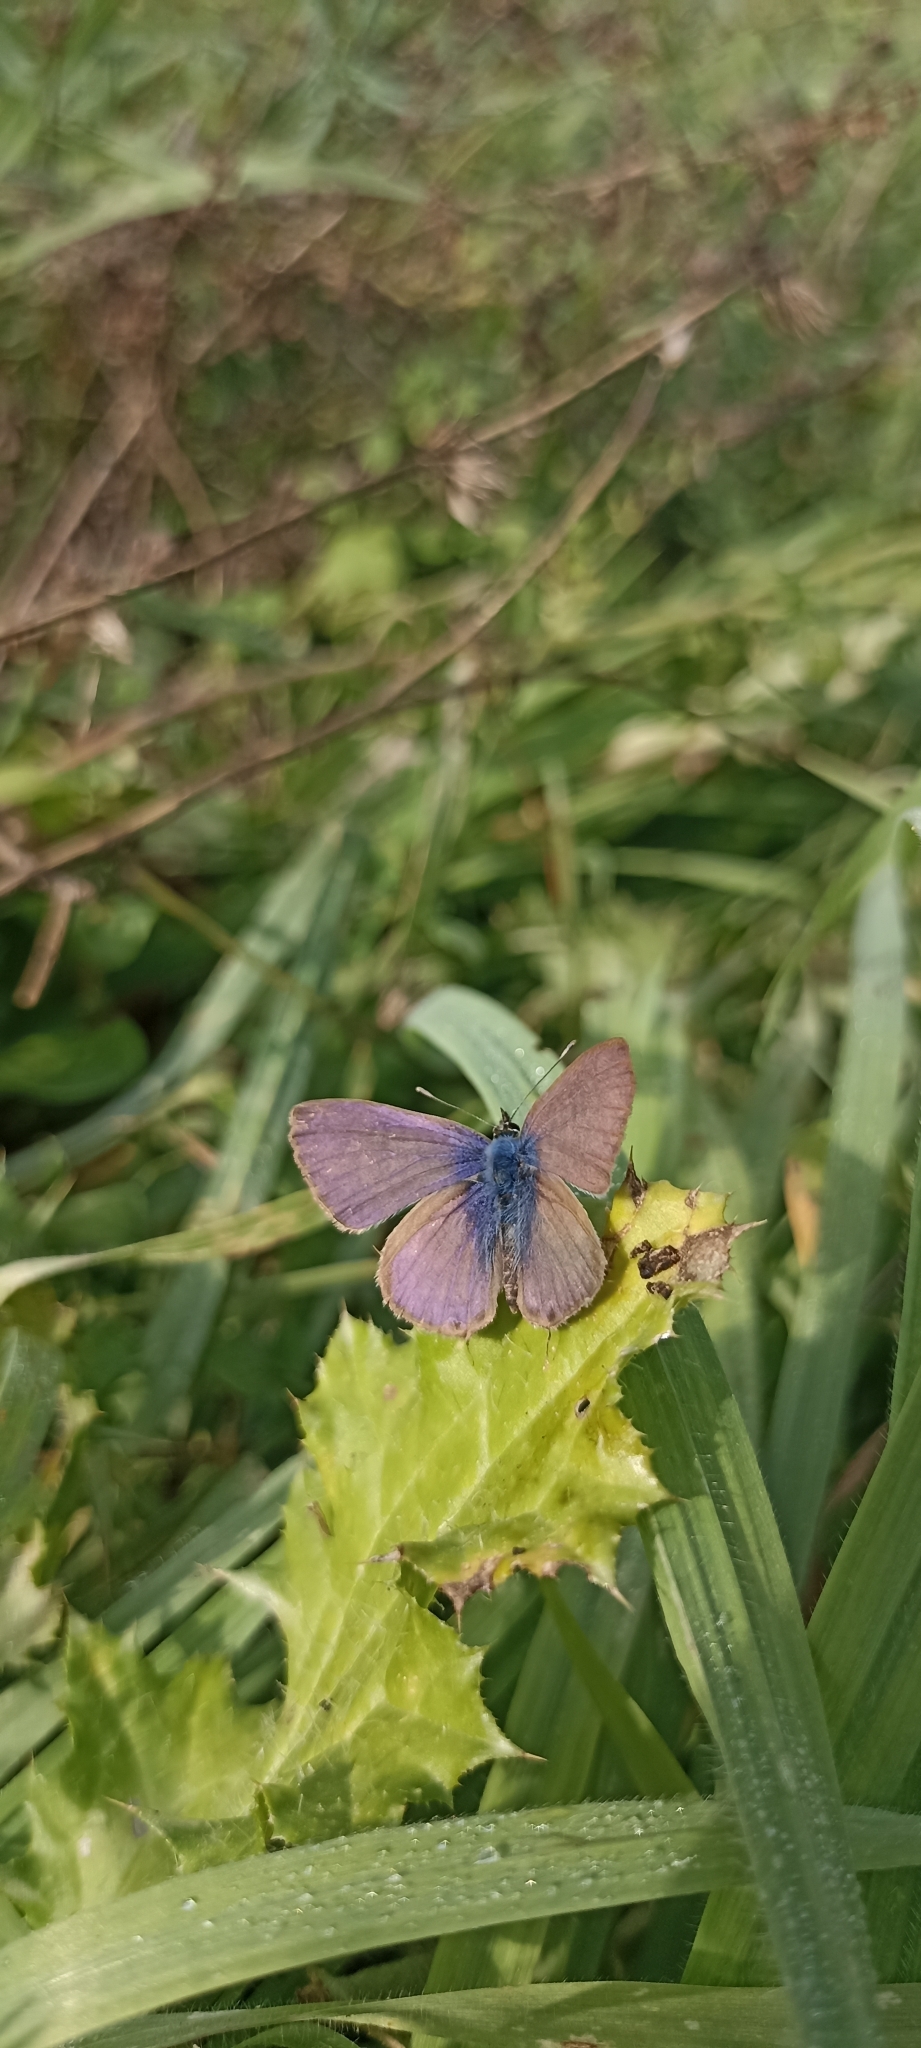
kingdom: Animalia
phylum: Arthropoda
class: Insecta
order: Lepidoptera
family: Lycaenidae
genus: Leptotes
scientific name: Leptotes pirithous
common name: Lang's short-tailed blue
